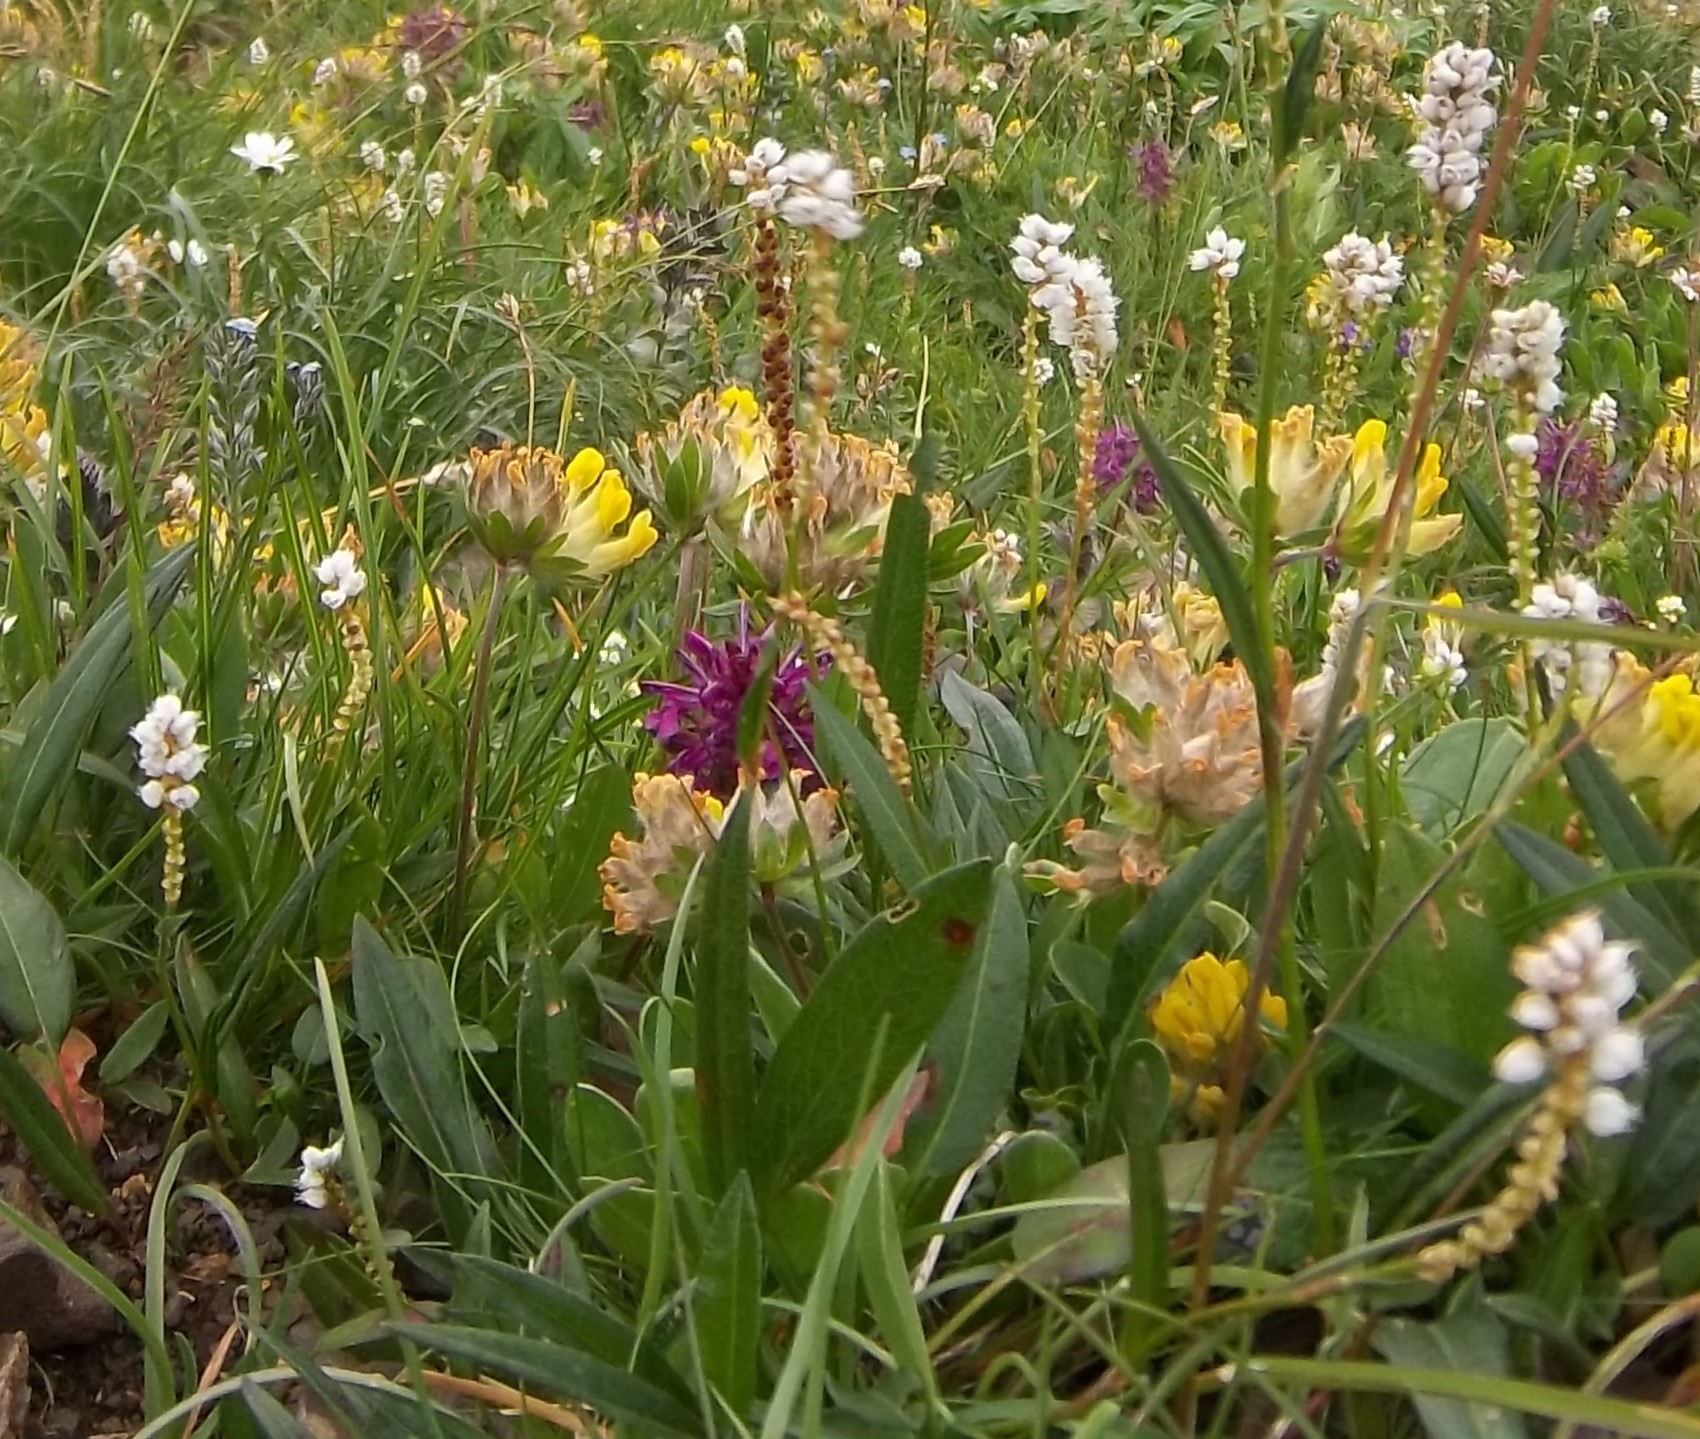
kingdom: Plantae
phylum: Tracheophyta
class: Magnoliopsida
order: Caryophyllales
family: Polygonaceae
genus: Bistorta
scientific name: Bistorta vivipara
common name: Alpine bistort
